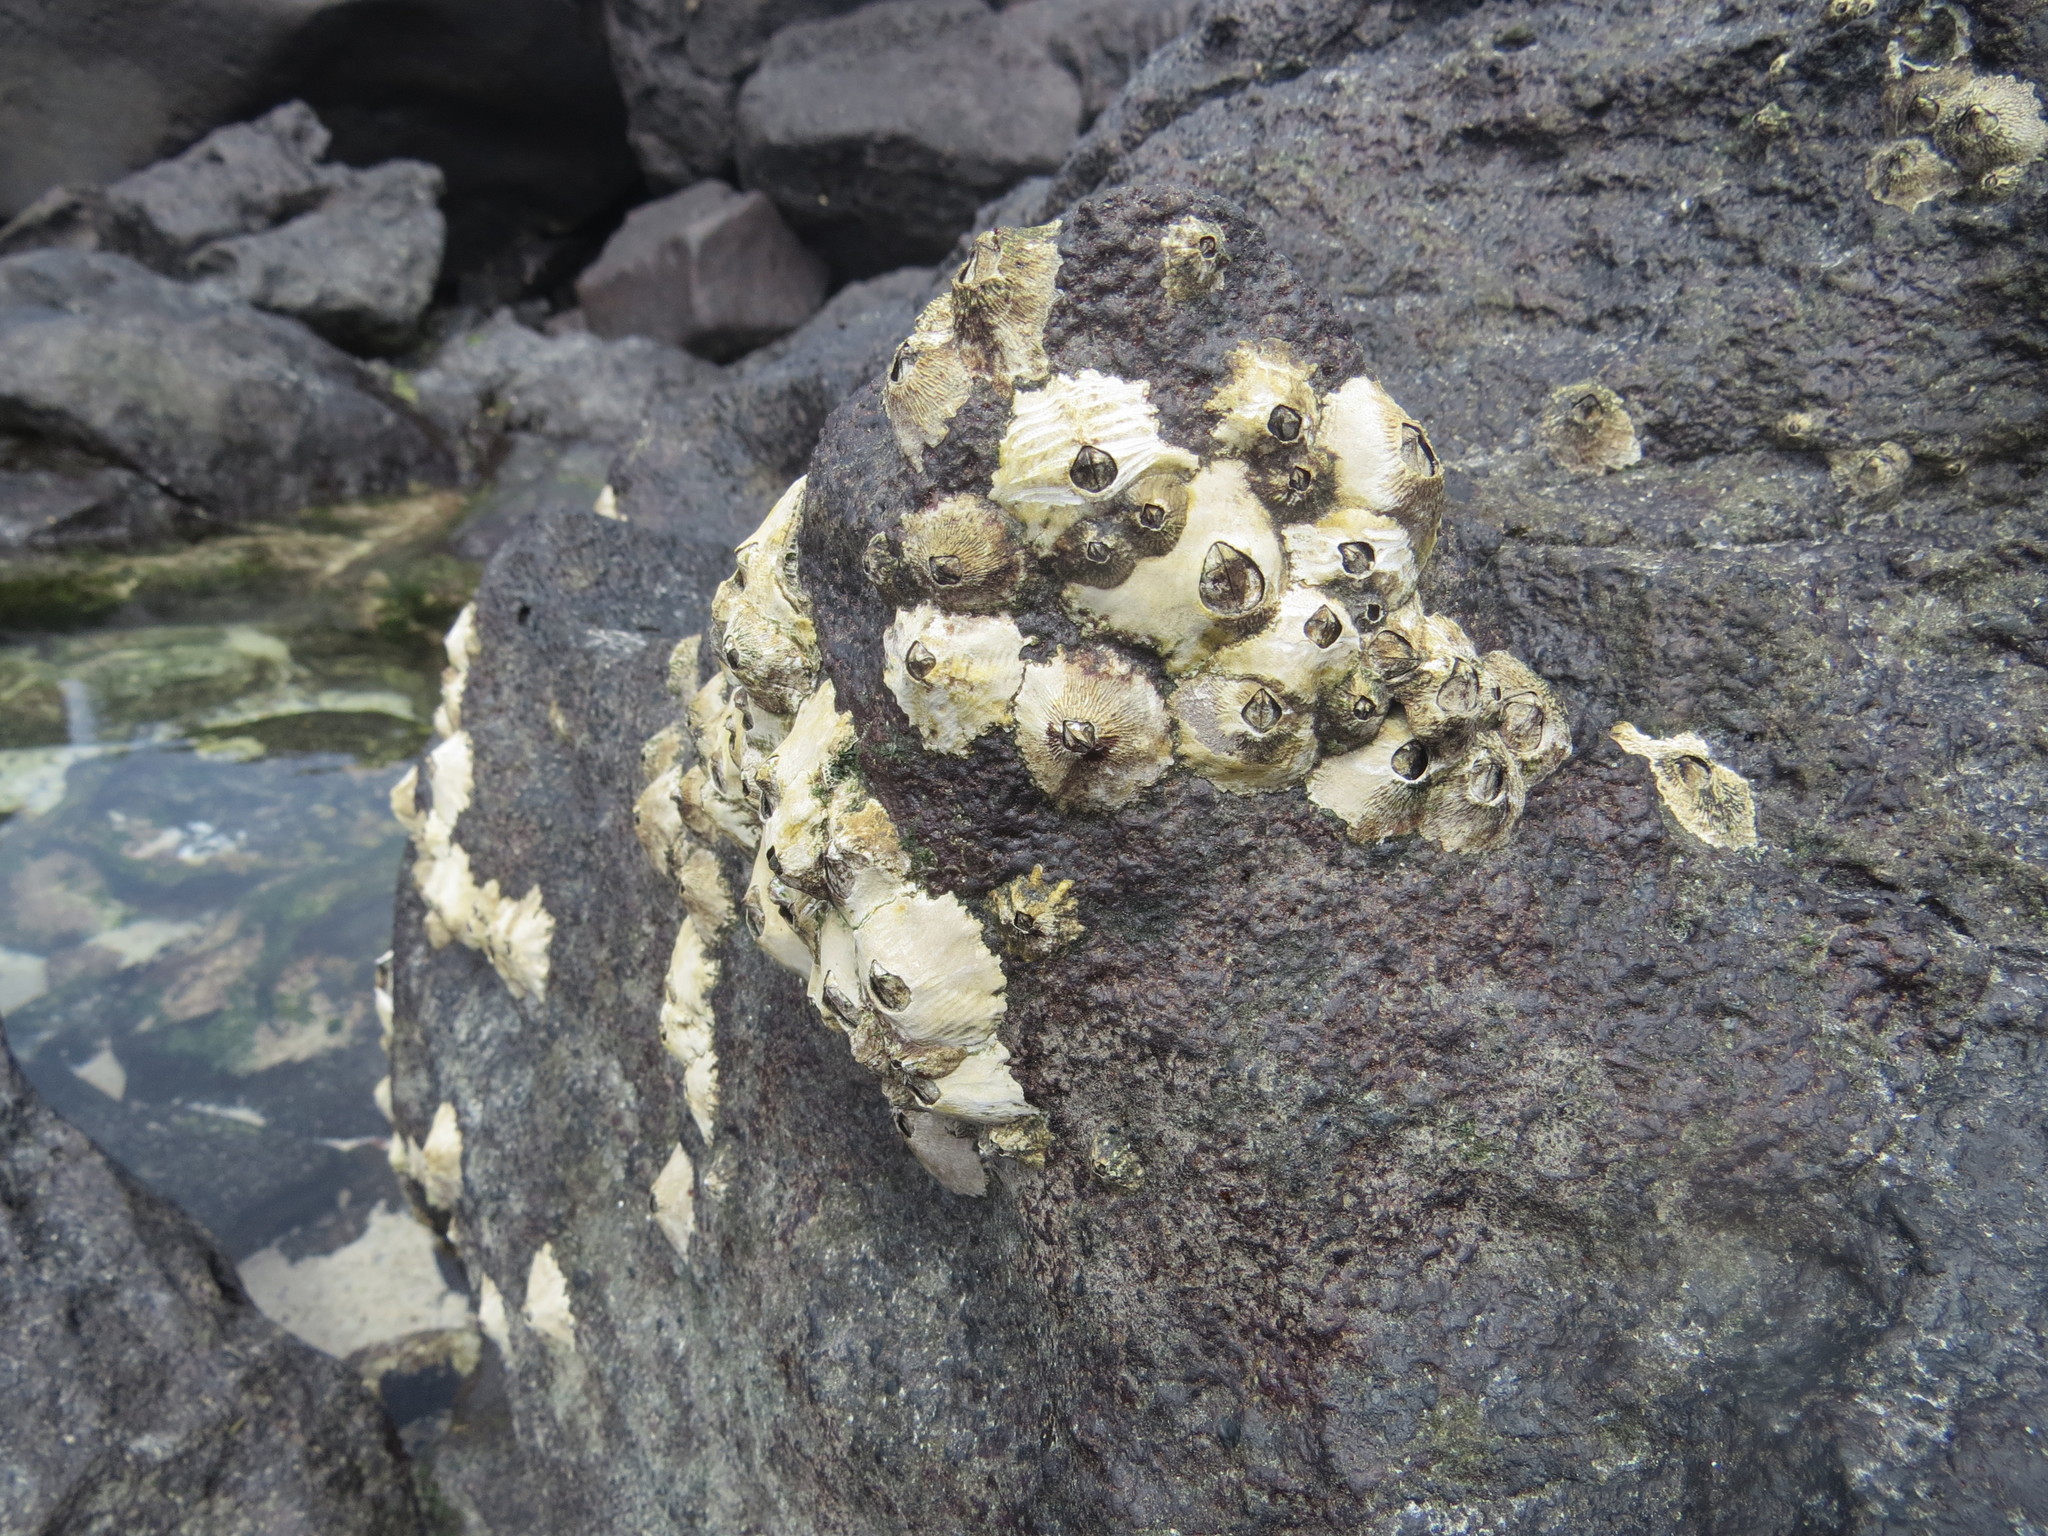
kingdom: Animalia
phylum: Arthropoda
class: Maxillopoda
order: Sessilia
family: Tetraclitidae
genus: Tetraclita
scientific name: Tetraclita squamosa
